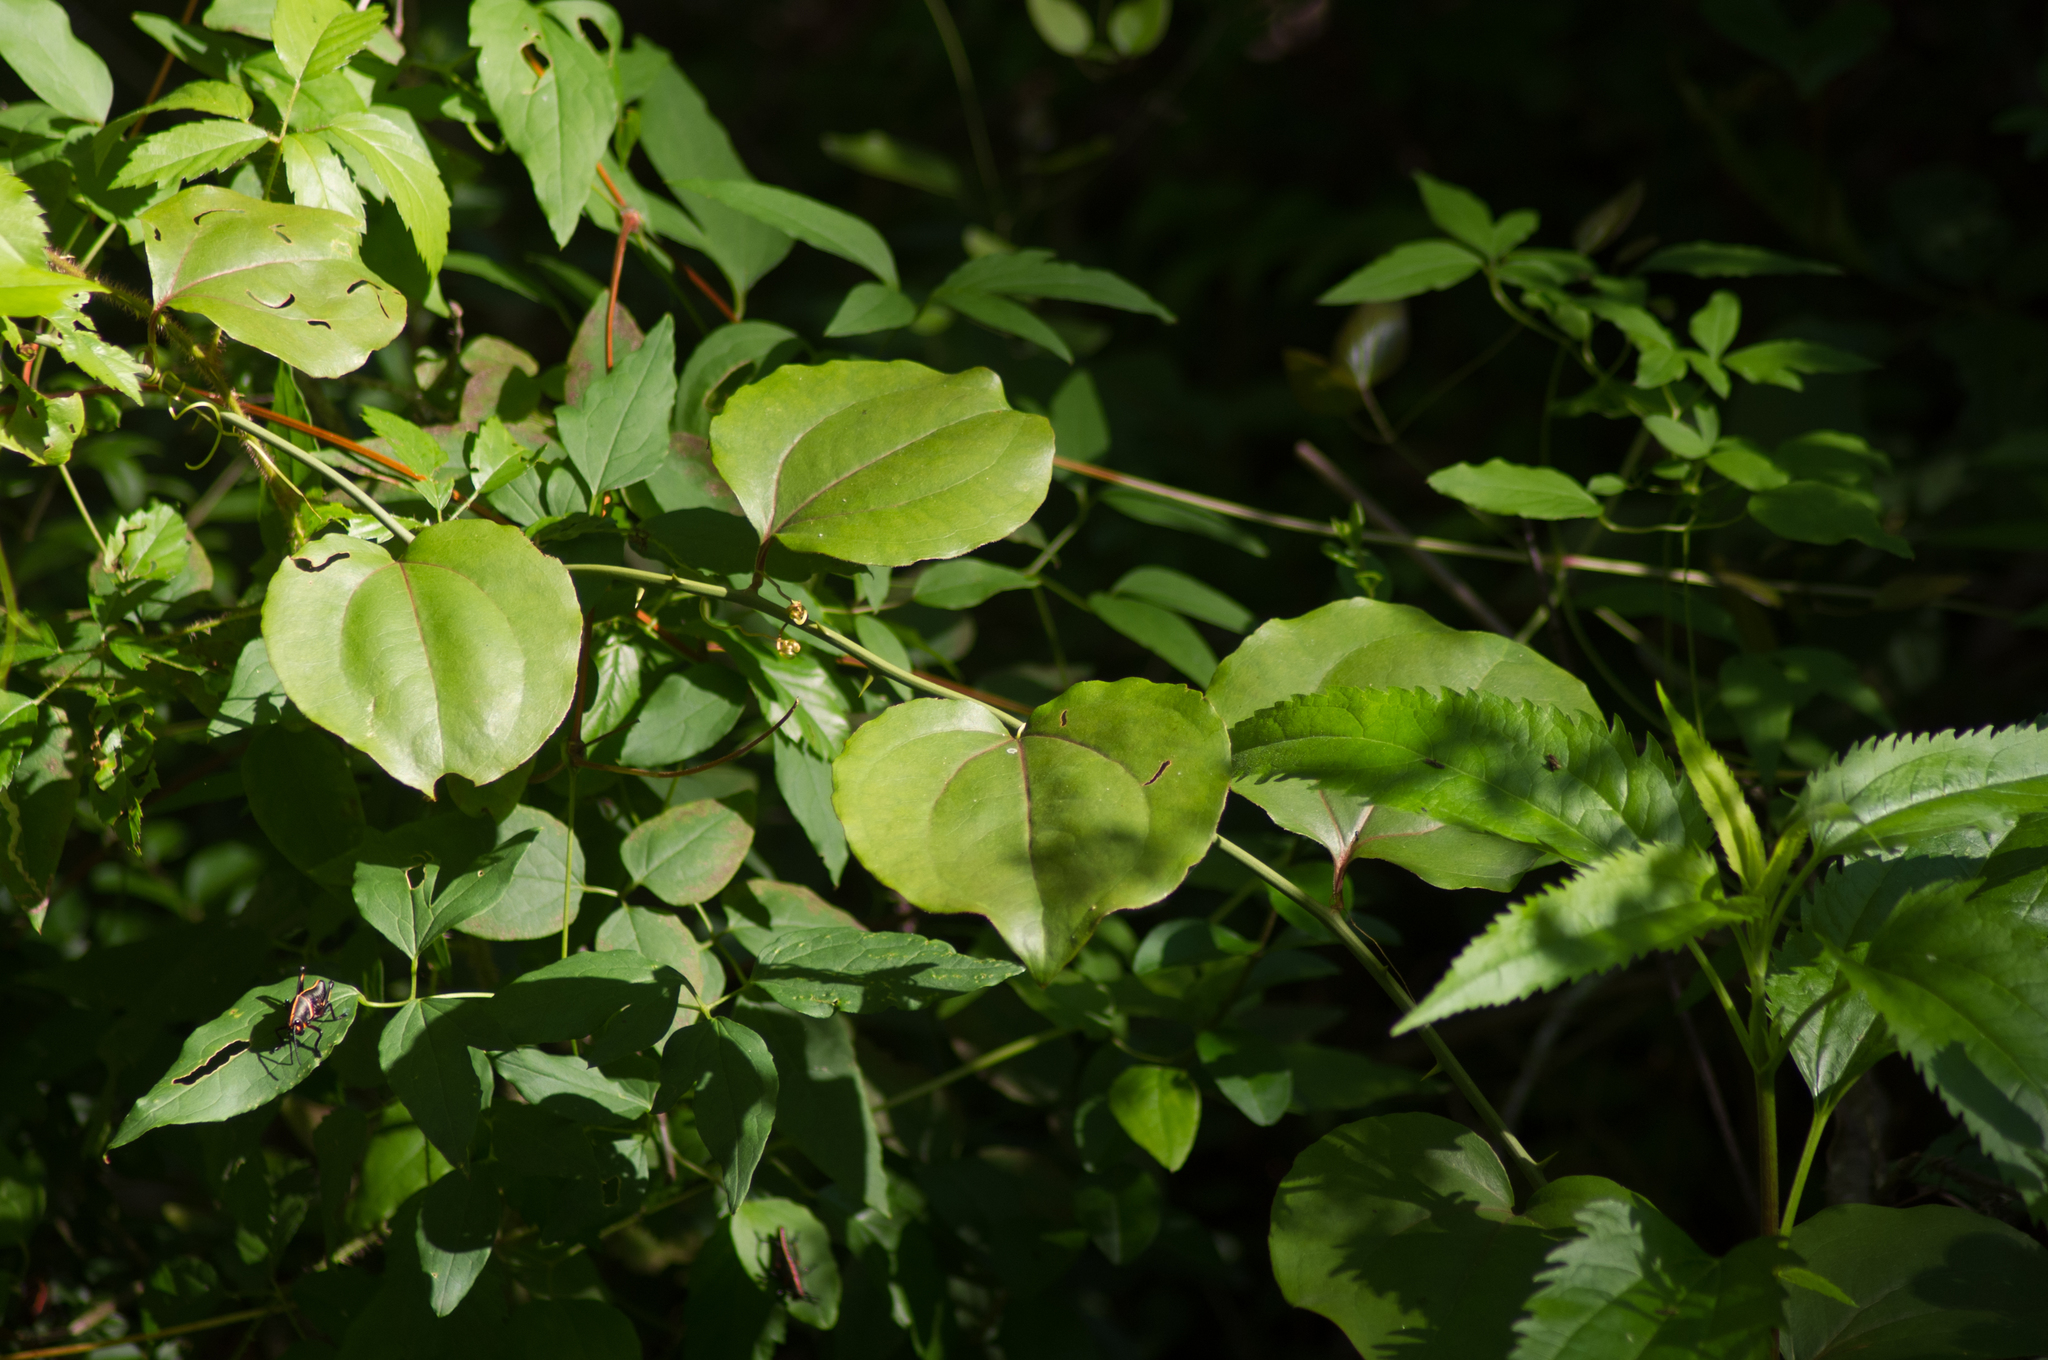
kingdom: Plantae
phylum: Tracheophyta
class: Liliopsida
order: Liliales
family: Smilacaceae
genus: Smilax
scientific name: Smilax rotundifolia
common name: Bullbriar
